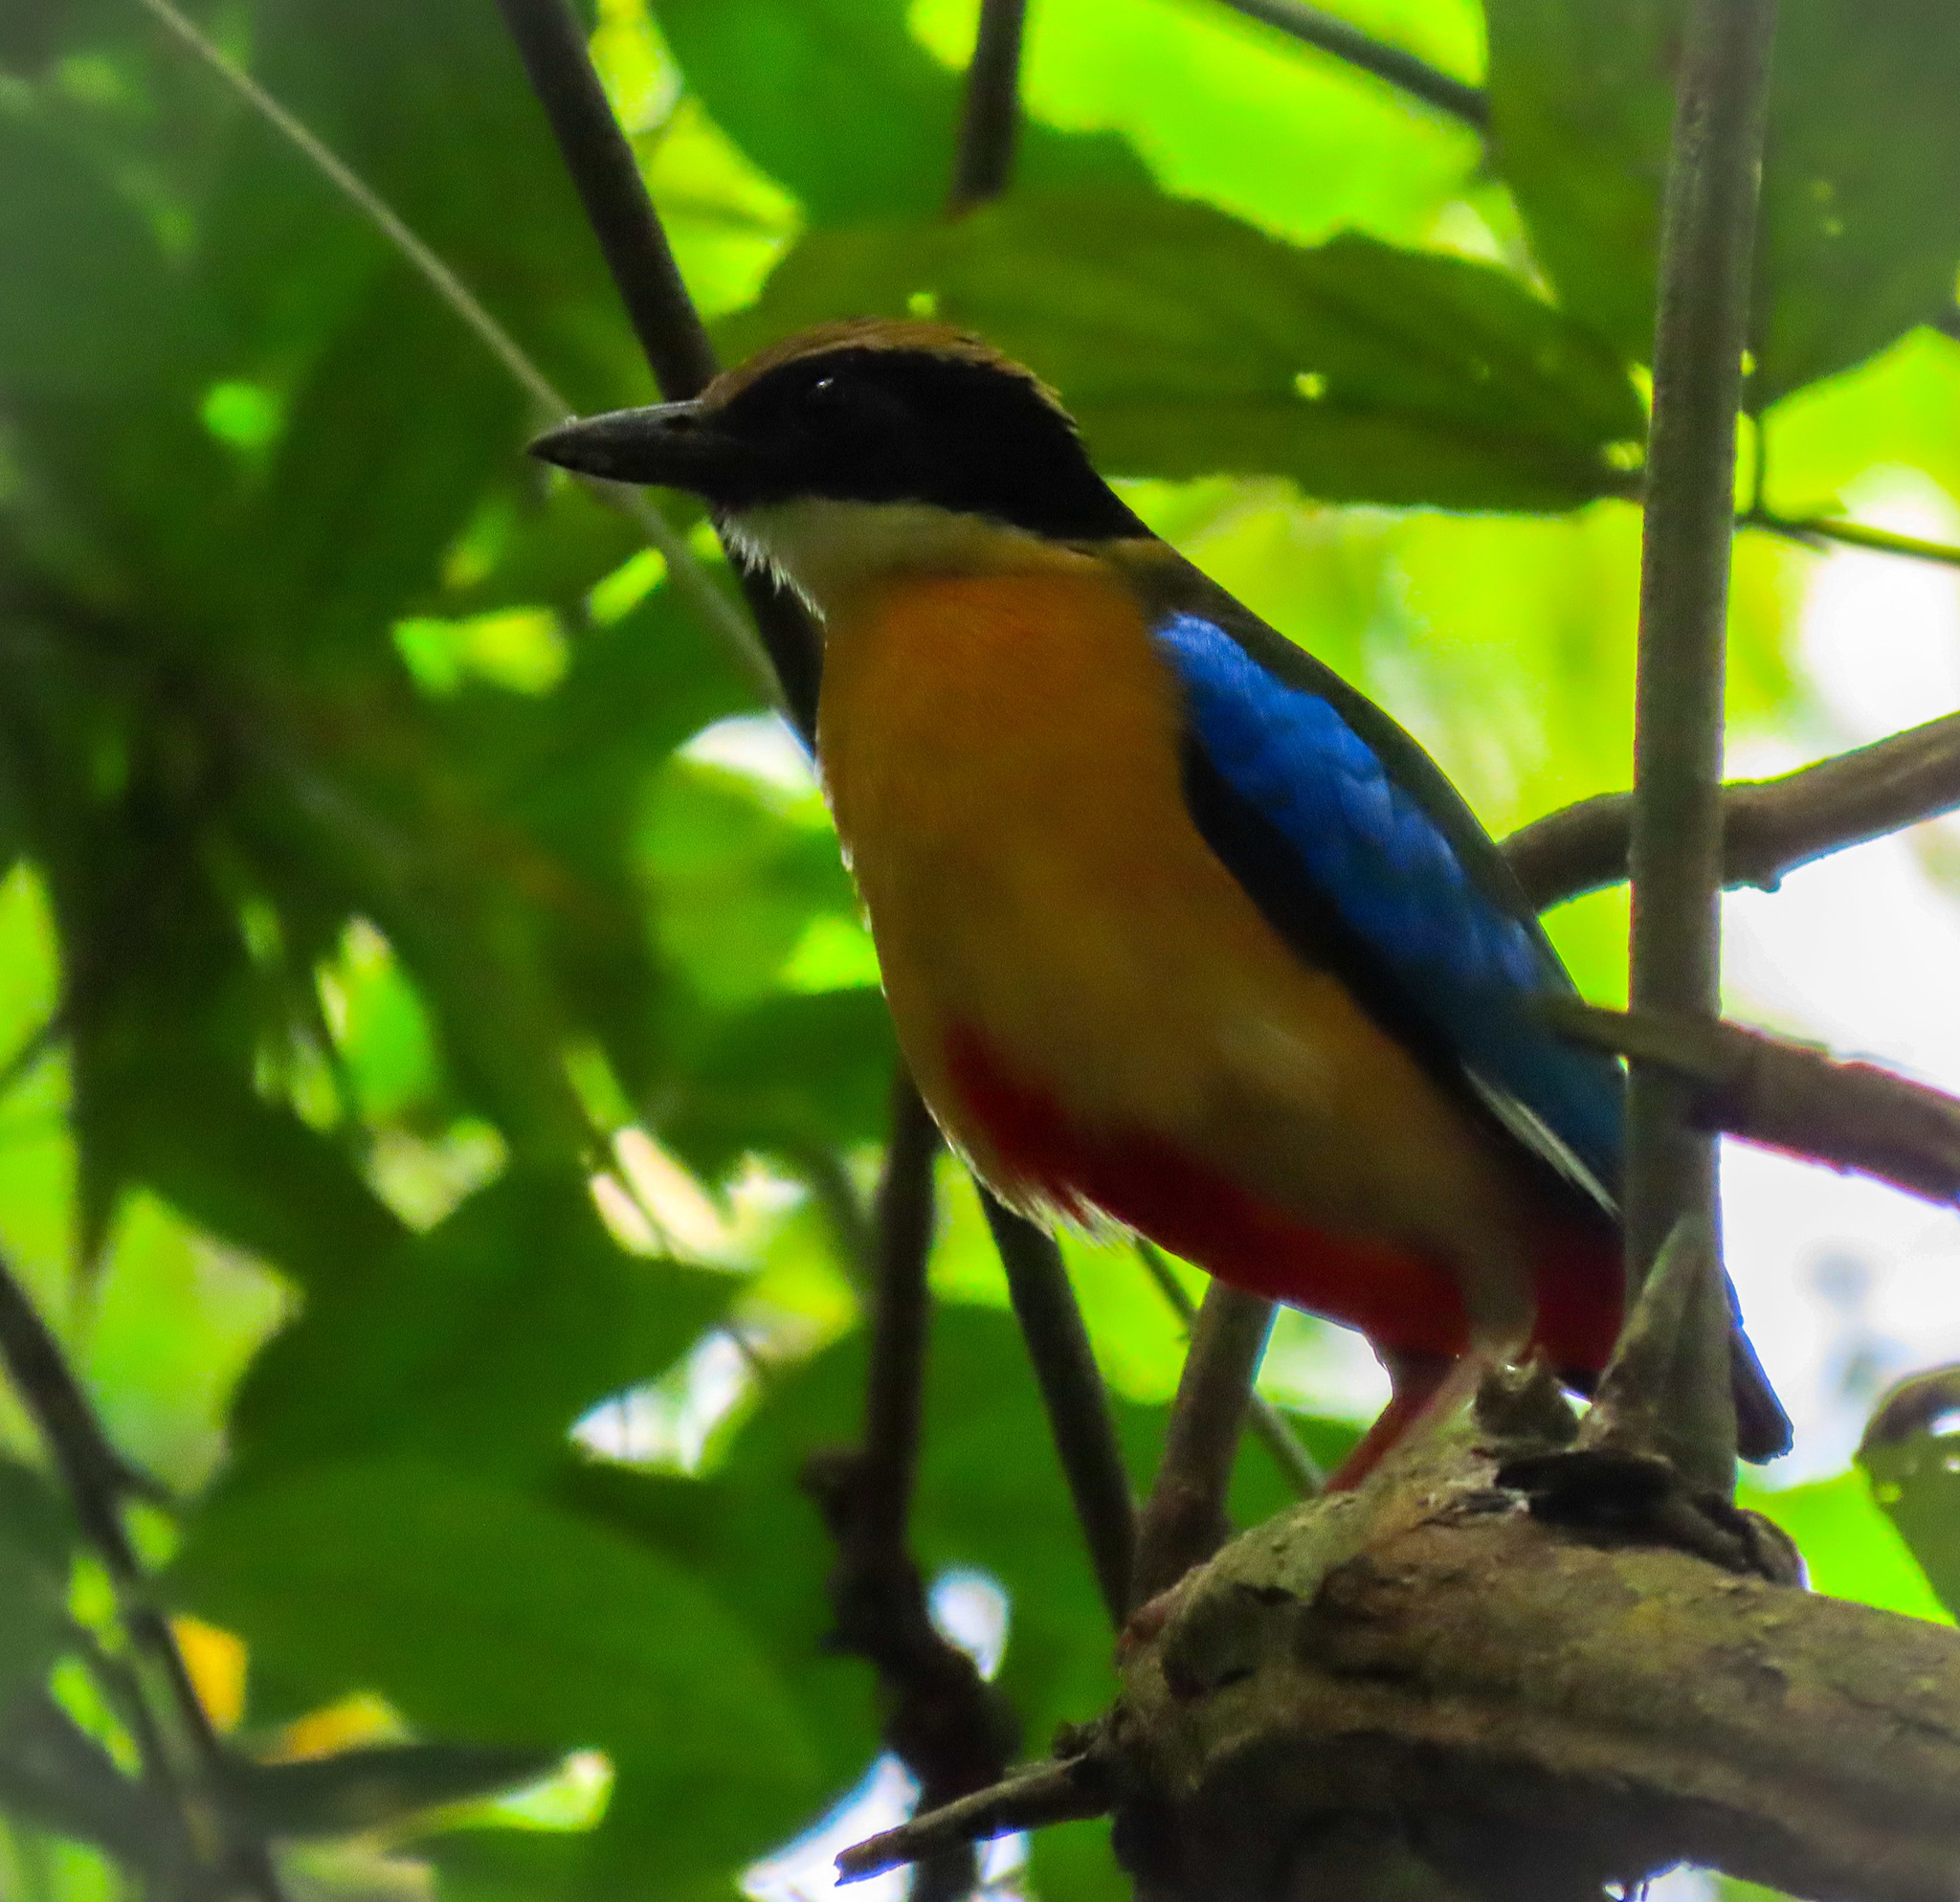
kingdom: Animalia
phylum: Chordata
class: Aves
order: Passeriformes
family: Pittidae
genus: Pitta
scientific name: Pitta moluccensis
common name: Blue-winged pitta
